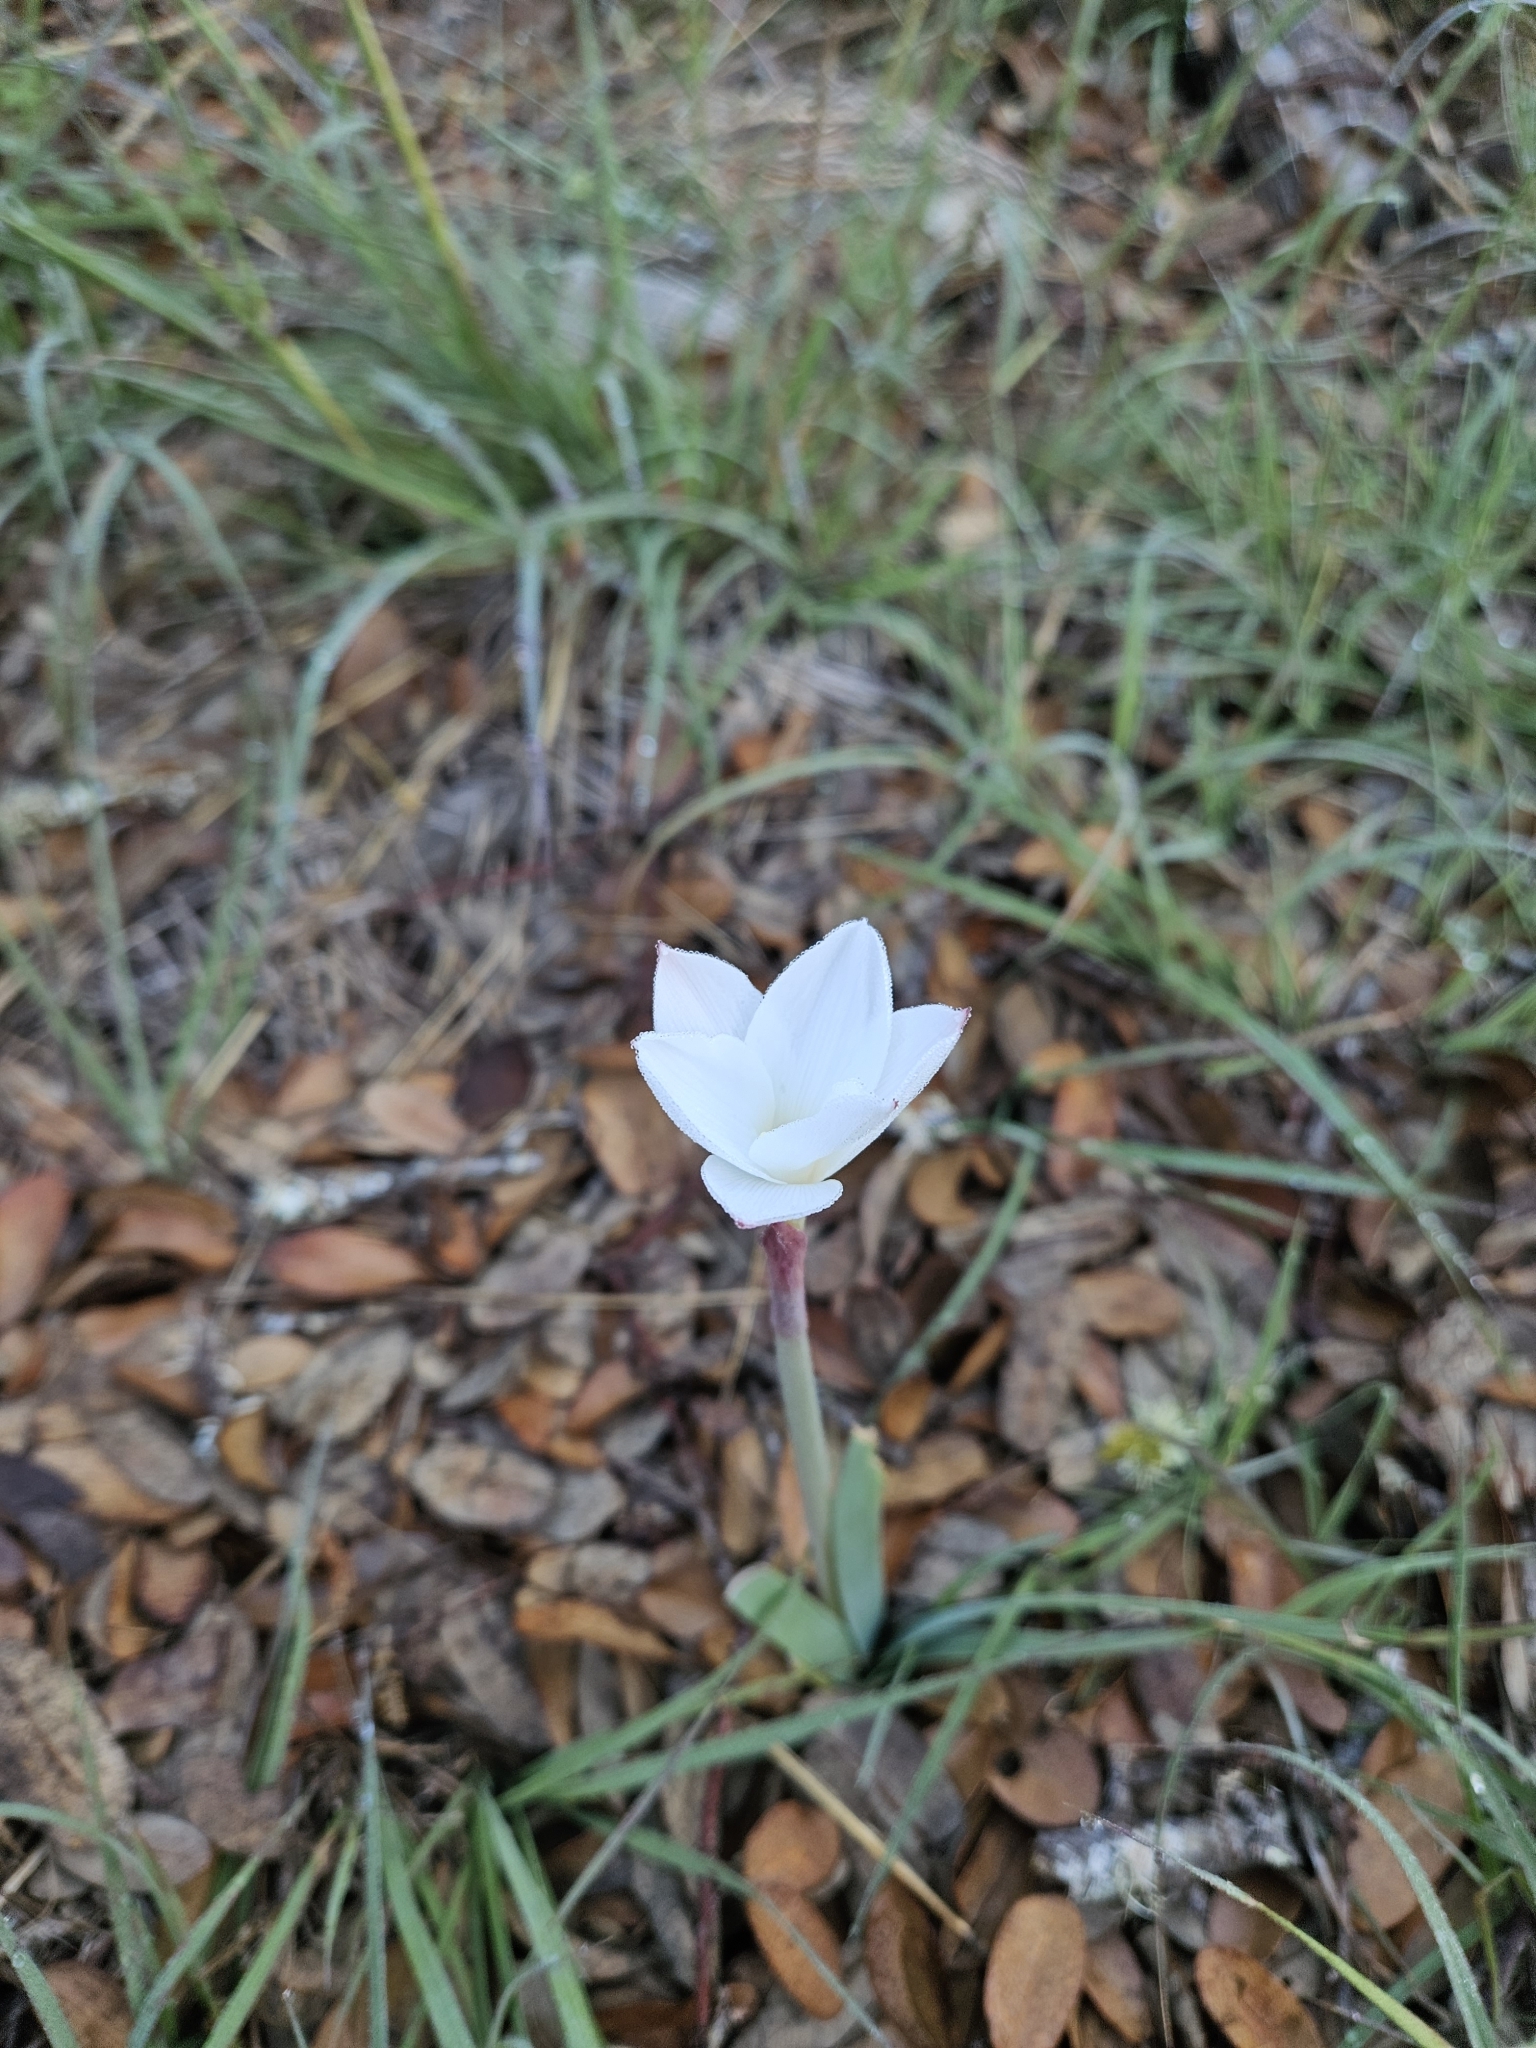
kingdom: Plantae
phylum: Tracheophyta
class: Liliopsida
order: Asparagales
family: Amaryllidaceae
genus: Zephyranthes
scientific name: Zephyranthes drummondii
